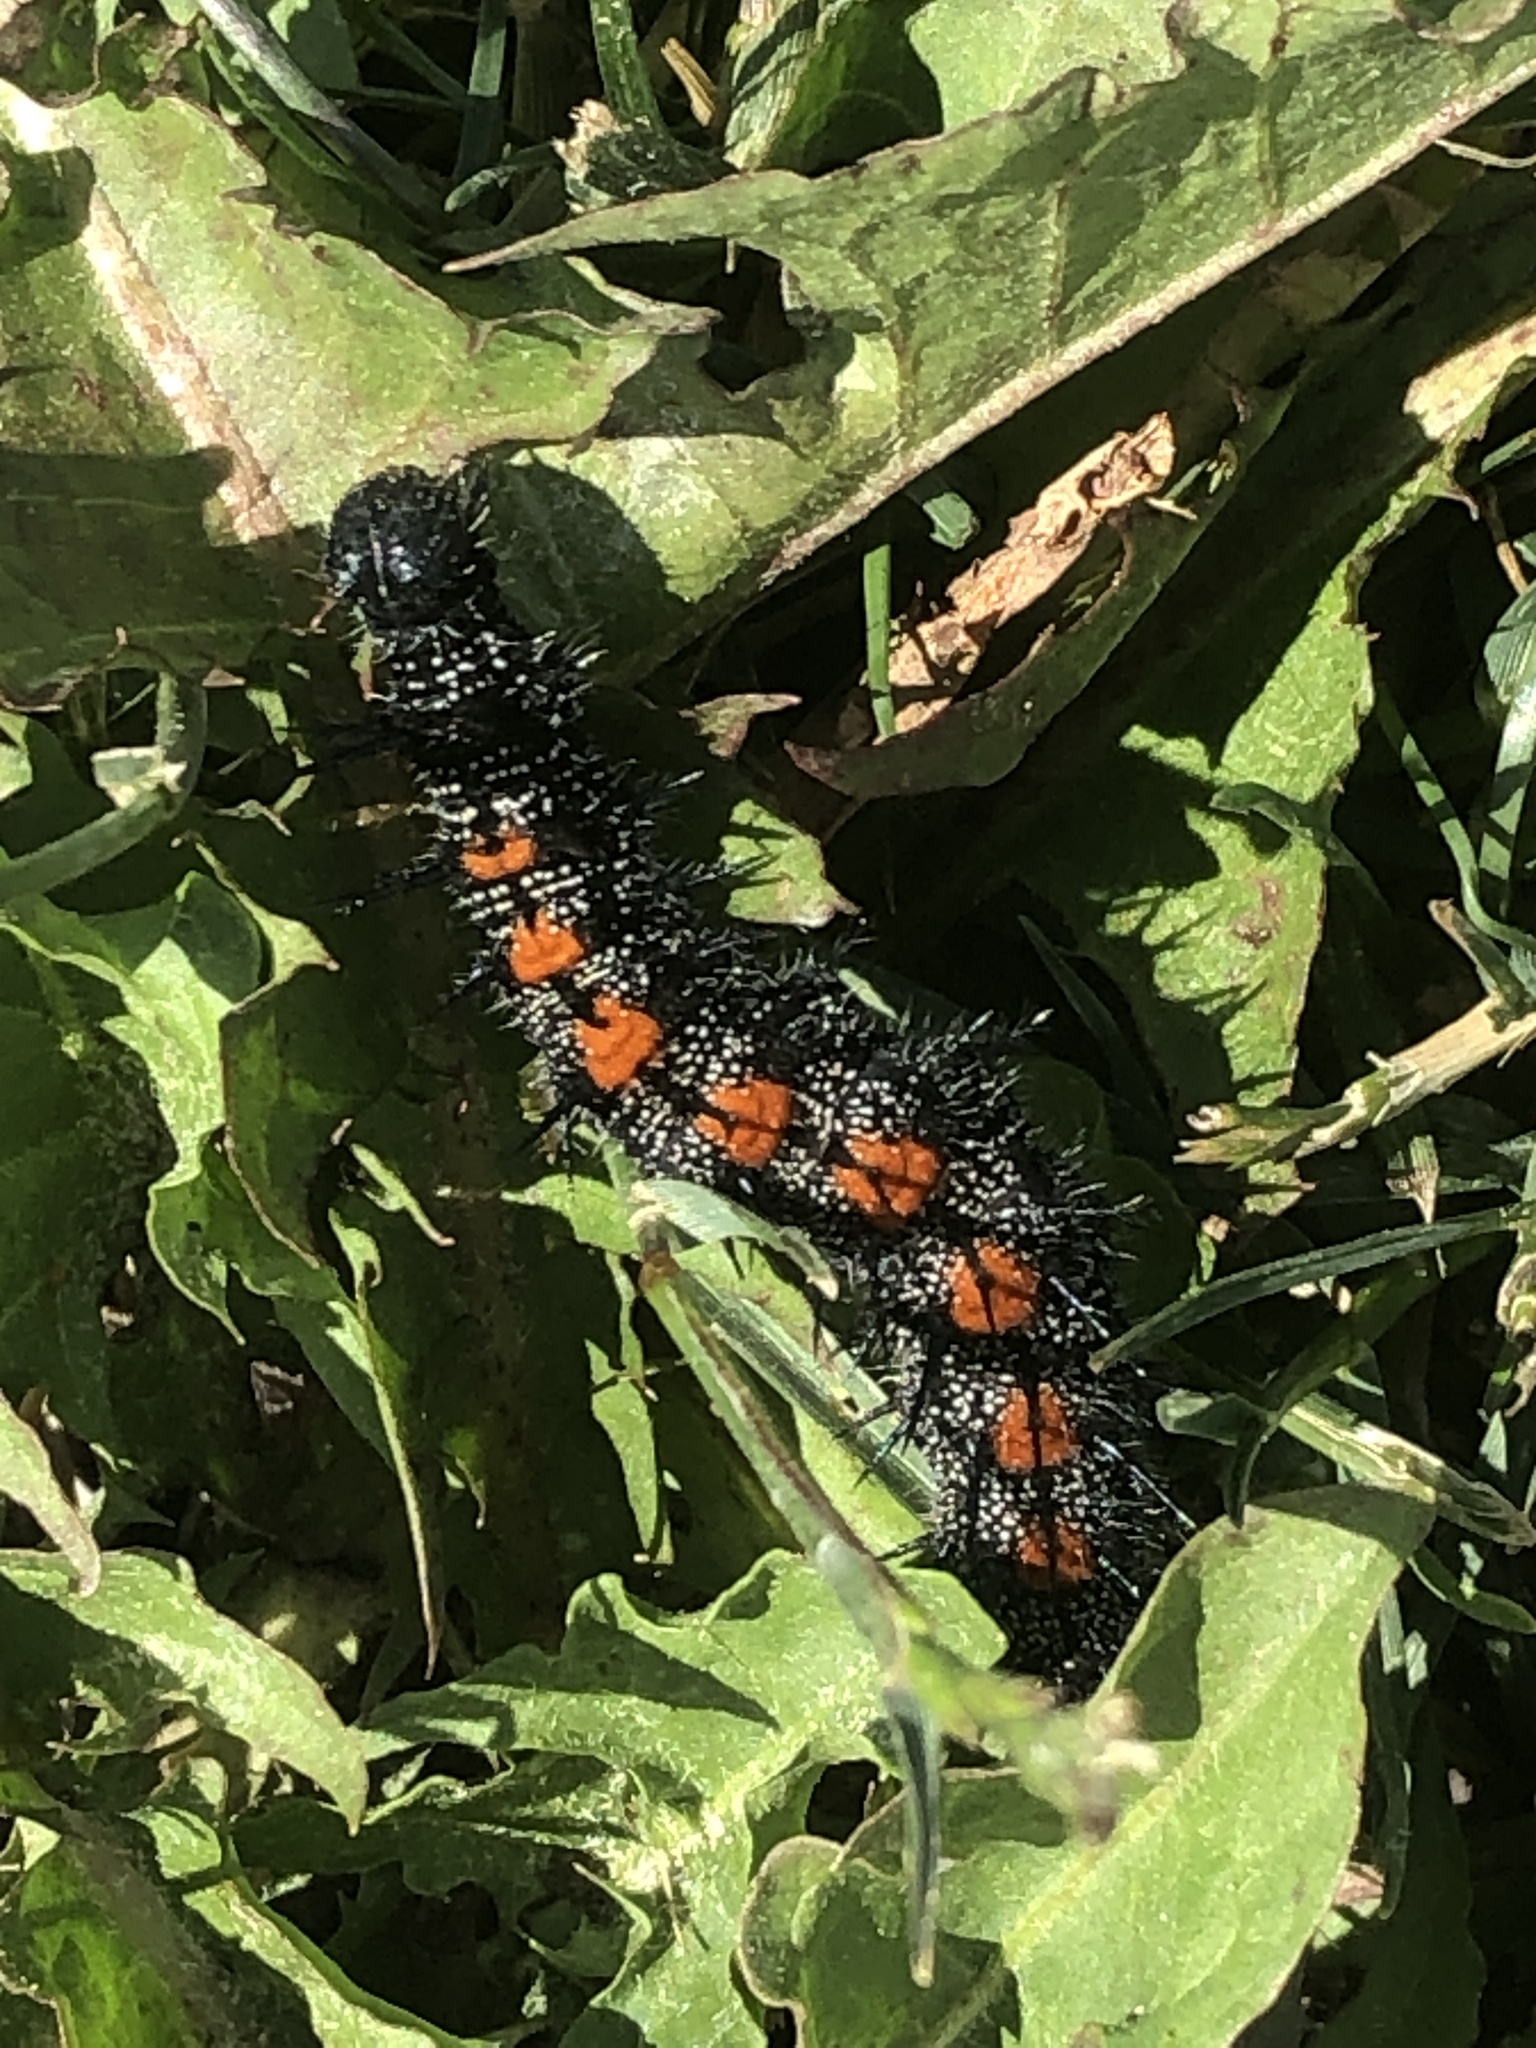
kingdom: Animalia
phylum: Arthropoda
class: Insecta
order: Lepidoptera
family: Nymphalidae
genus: Nymphalis
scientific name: Nymphalis antiopa
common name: Camberwell beauty
